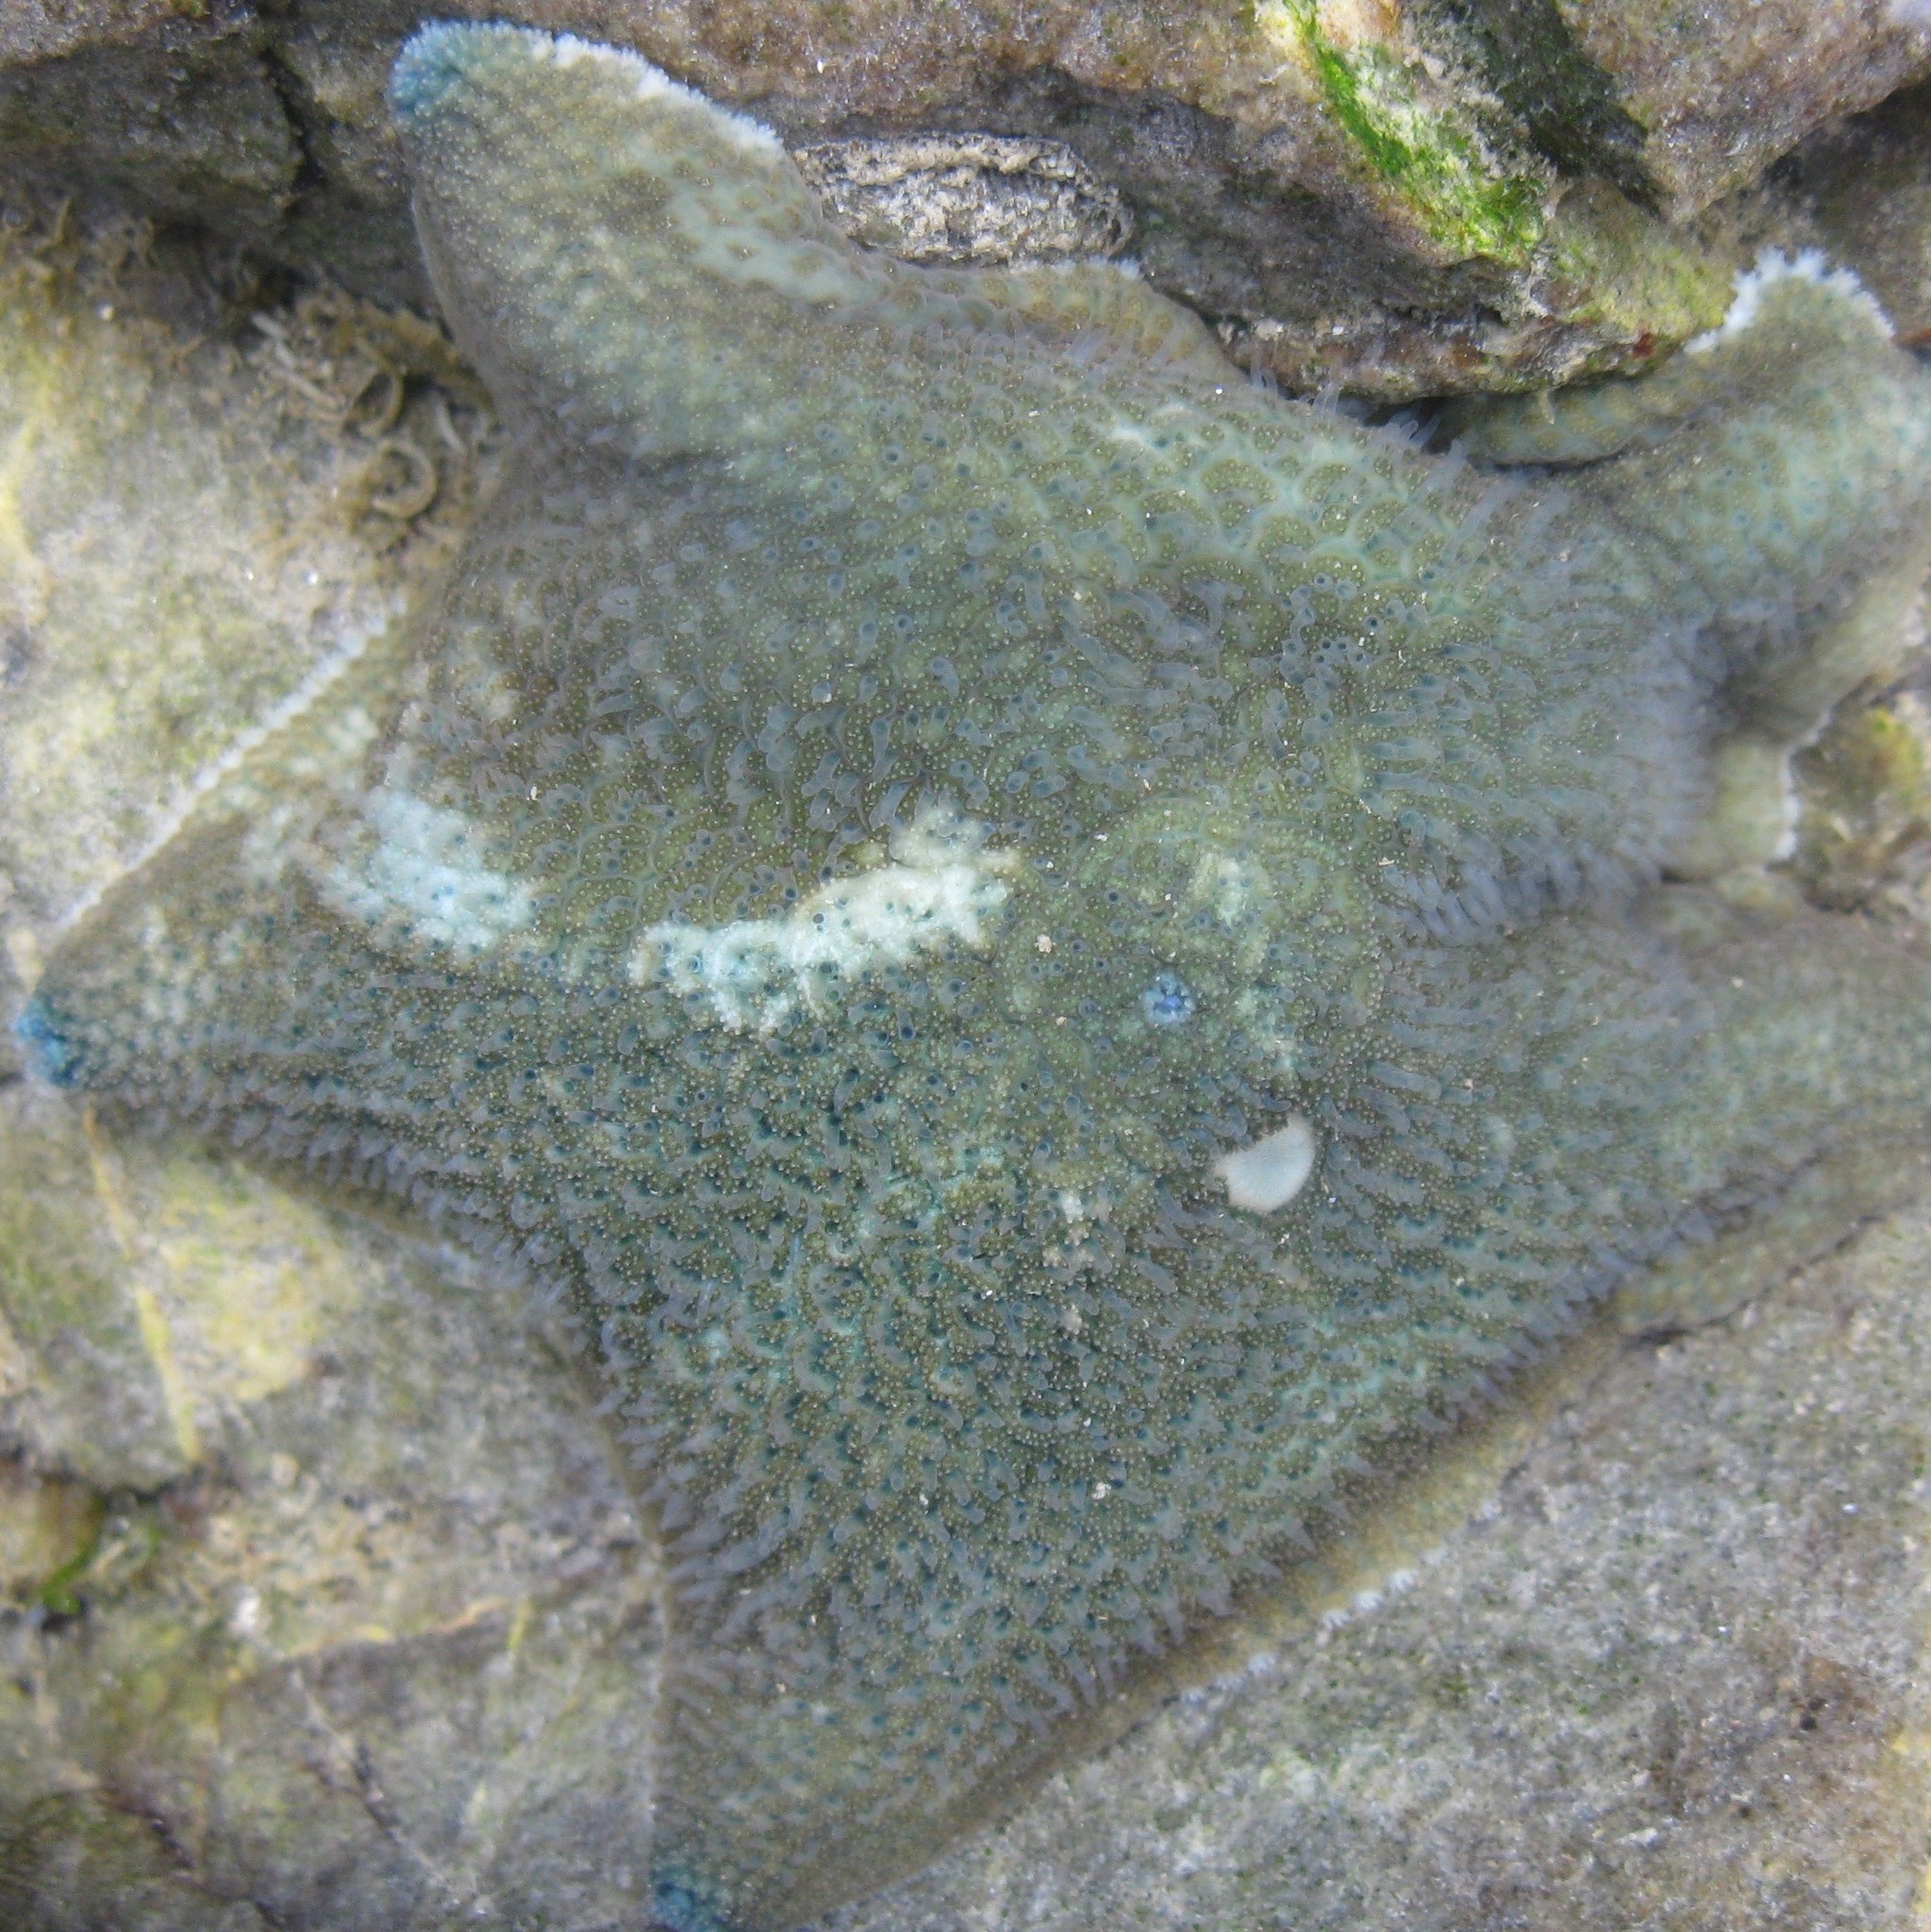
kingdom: Animalia
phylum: Echinodermata
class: Asteroidea
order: Valvatida
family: Asterinidae
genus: Patiriella
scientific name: Patiriella regularis
